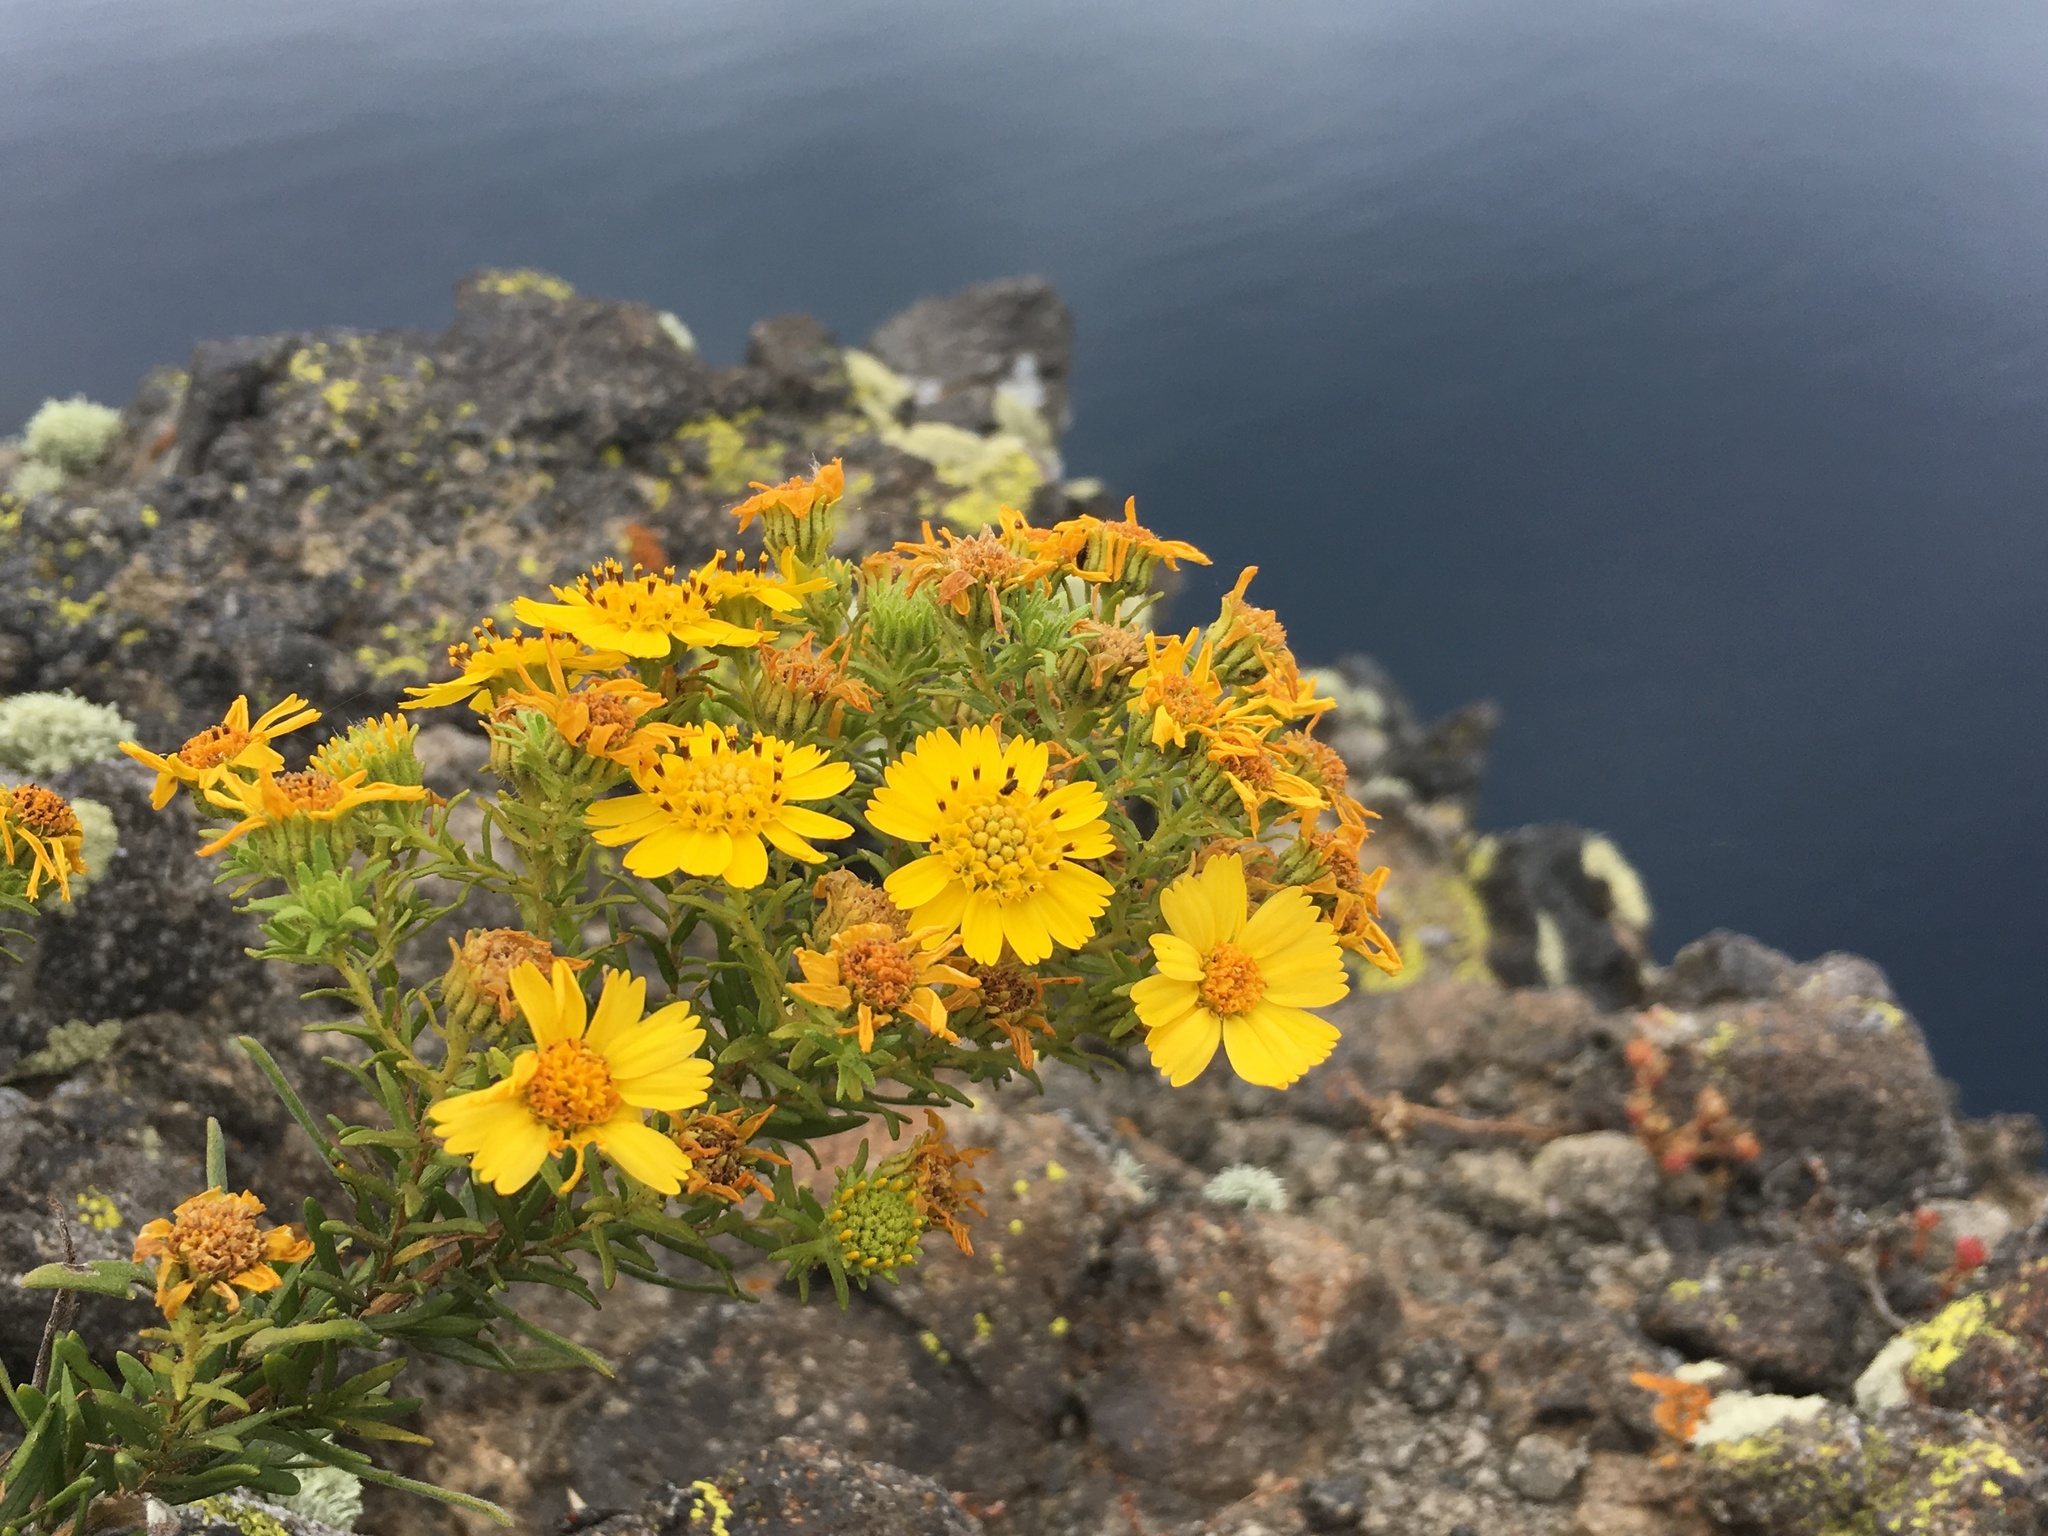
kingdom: Plantae
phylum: Tracheophyta
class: Magnoliopsida
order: Asterales
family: Asteraceae
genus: Deinandra
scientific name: Deinandra clementina
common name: Island tarplant
